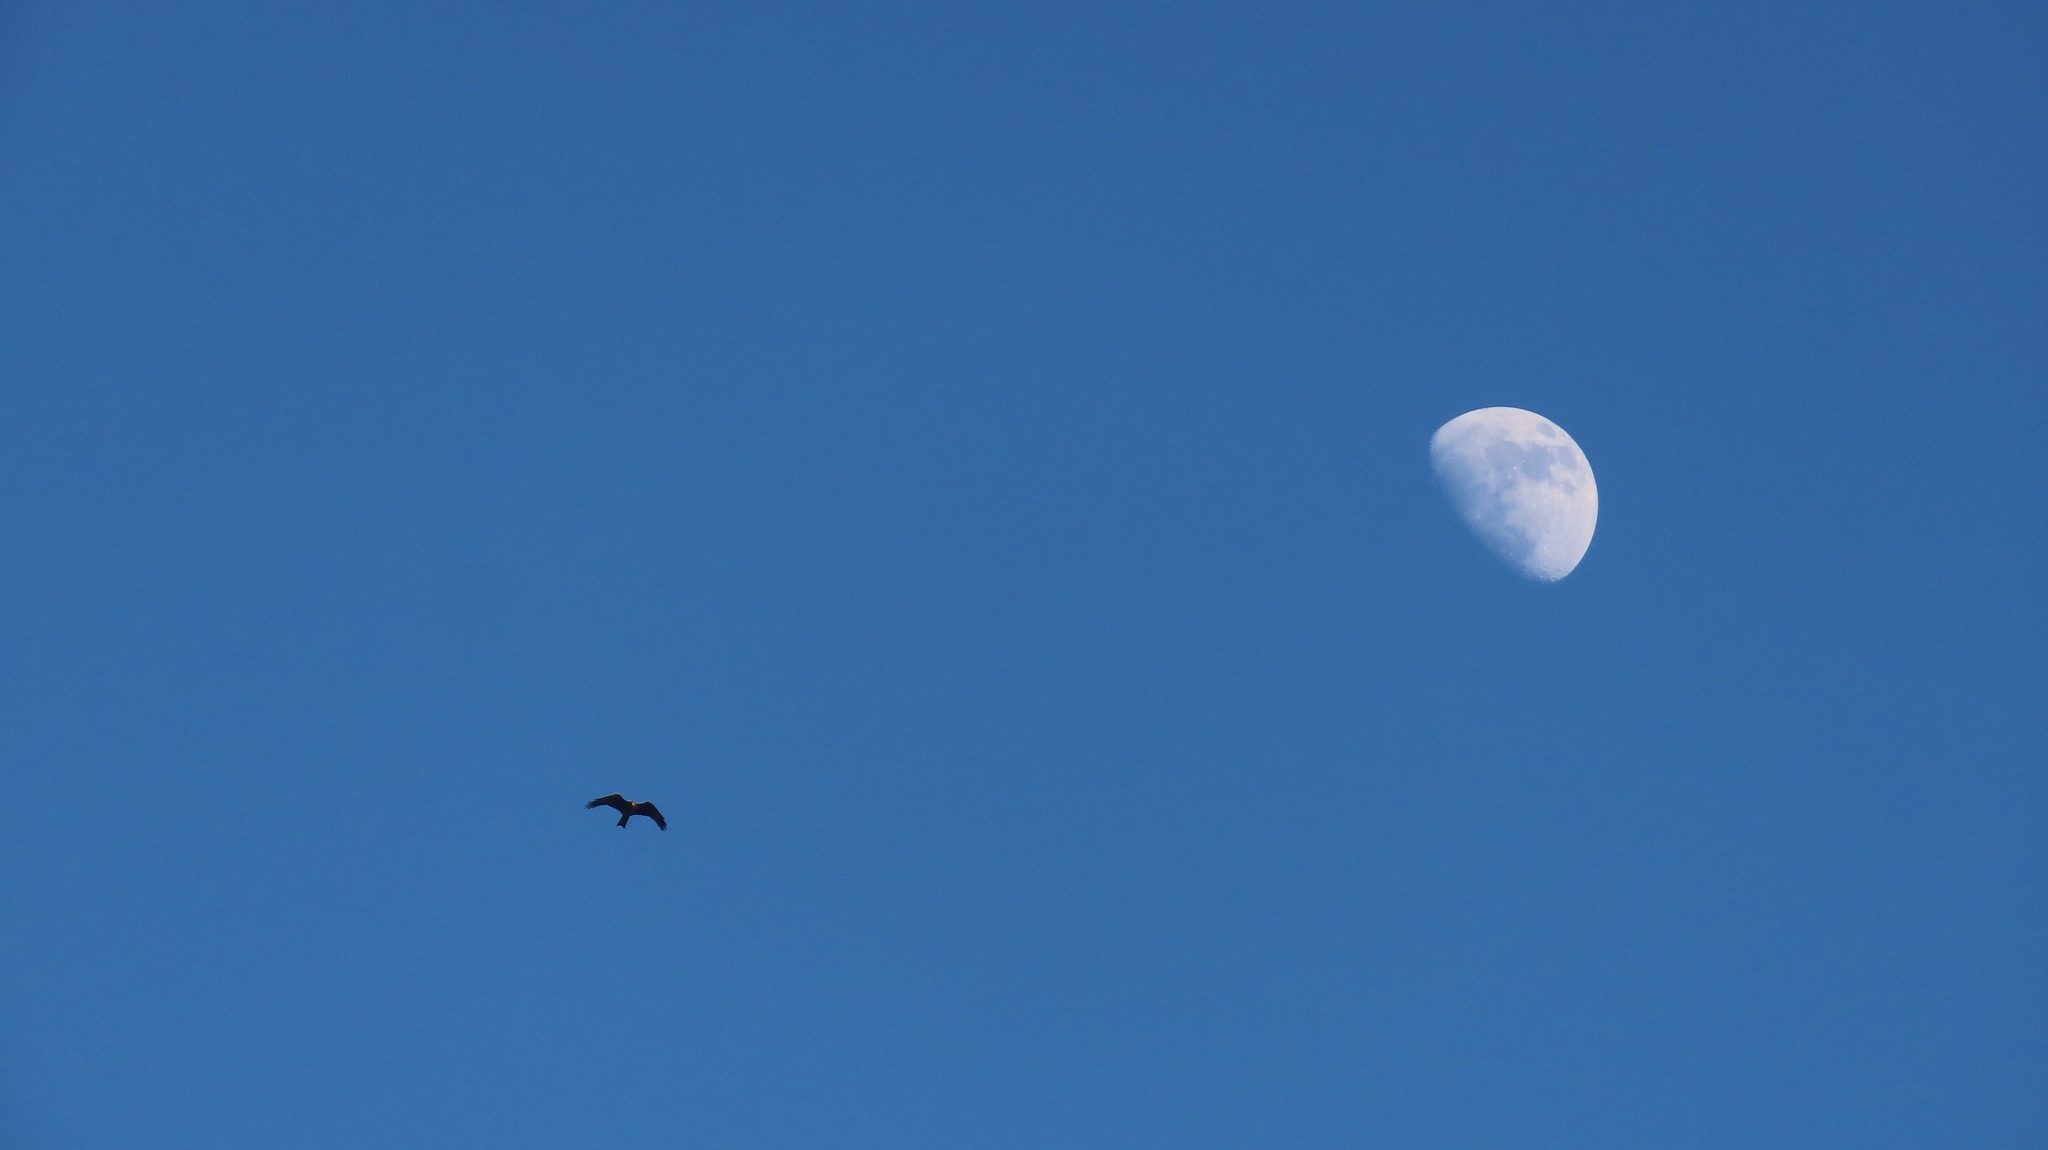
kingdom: Animalia
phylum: Chordata
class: Aves
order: Accipitriformes
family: Accipitridae
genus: Milvus
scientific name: Milvus migrans
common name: Black kite
